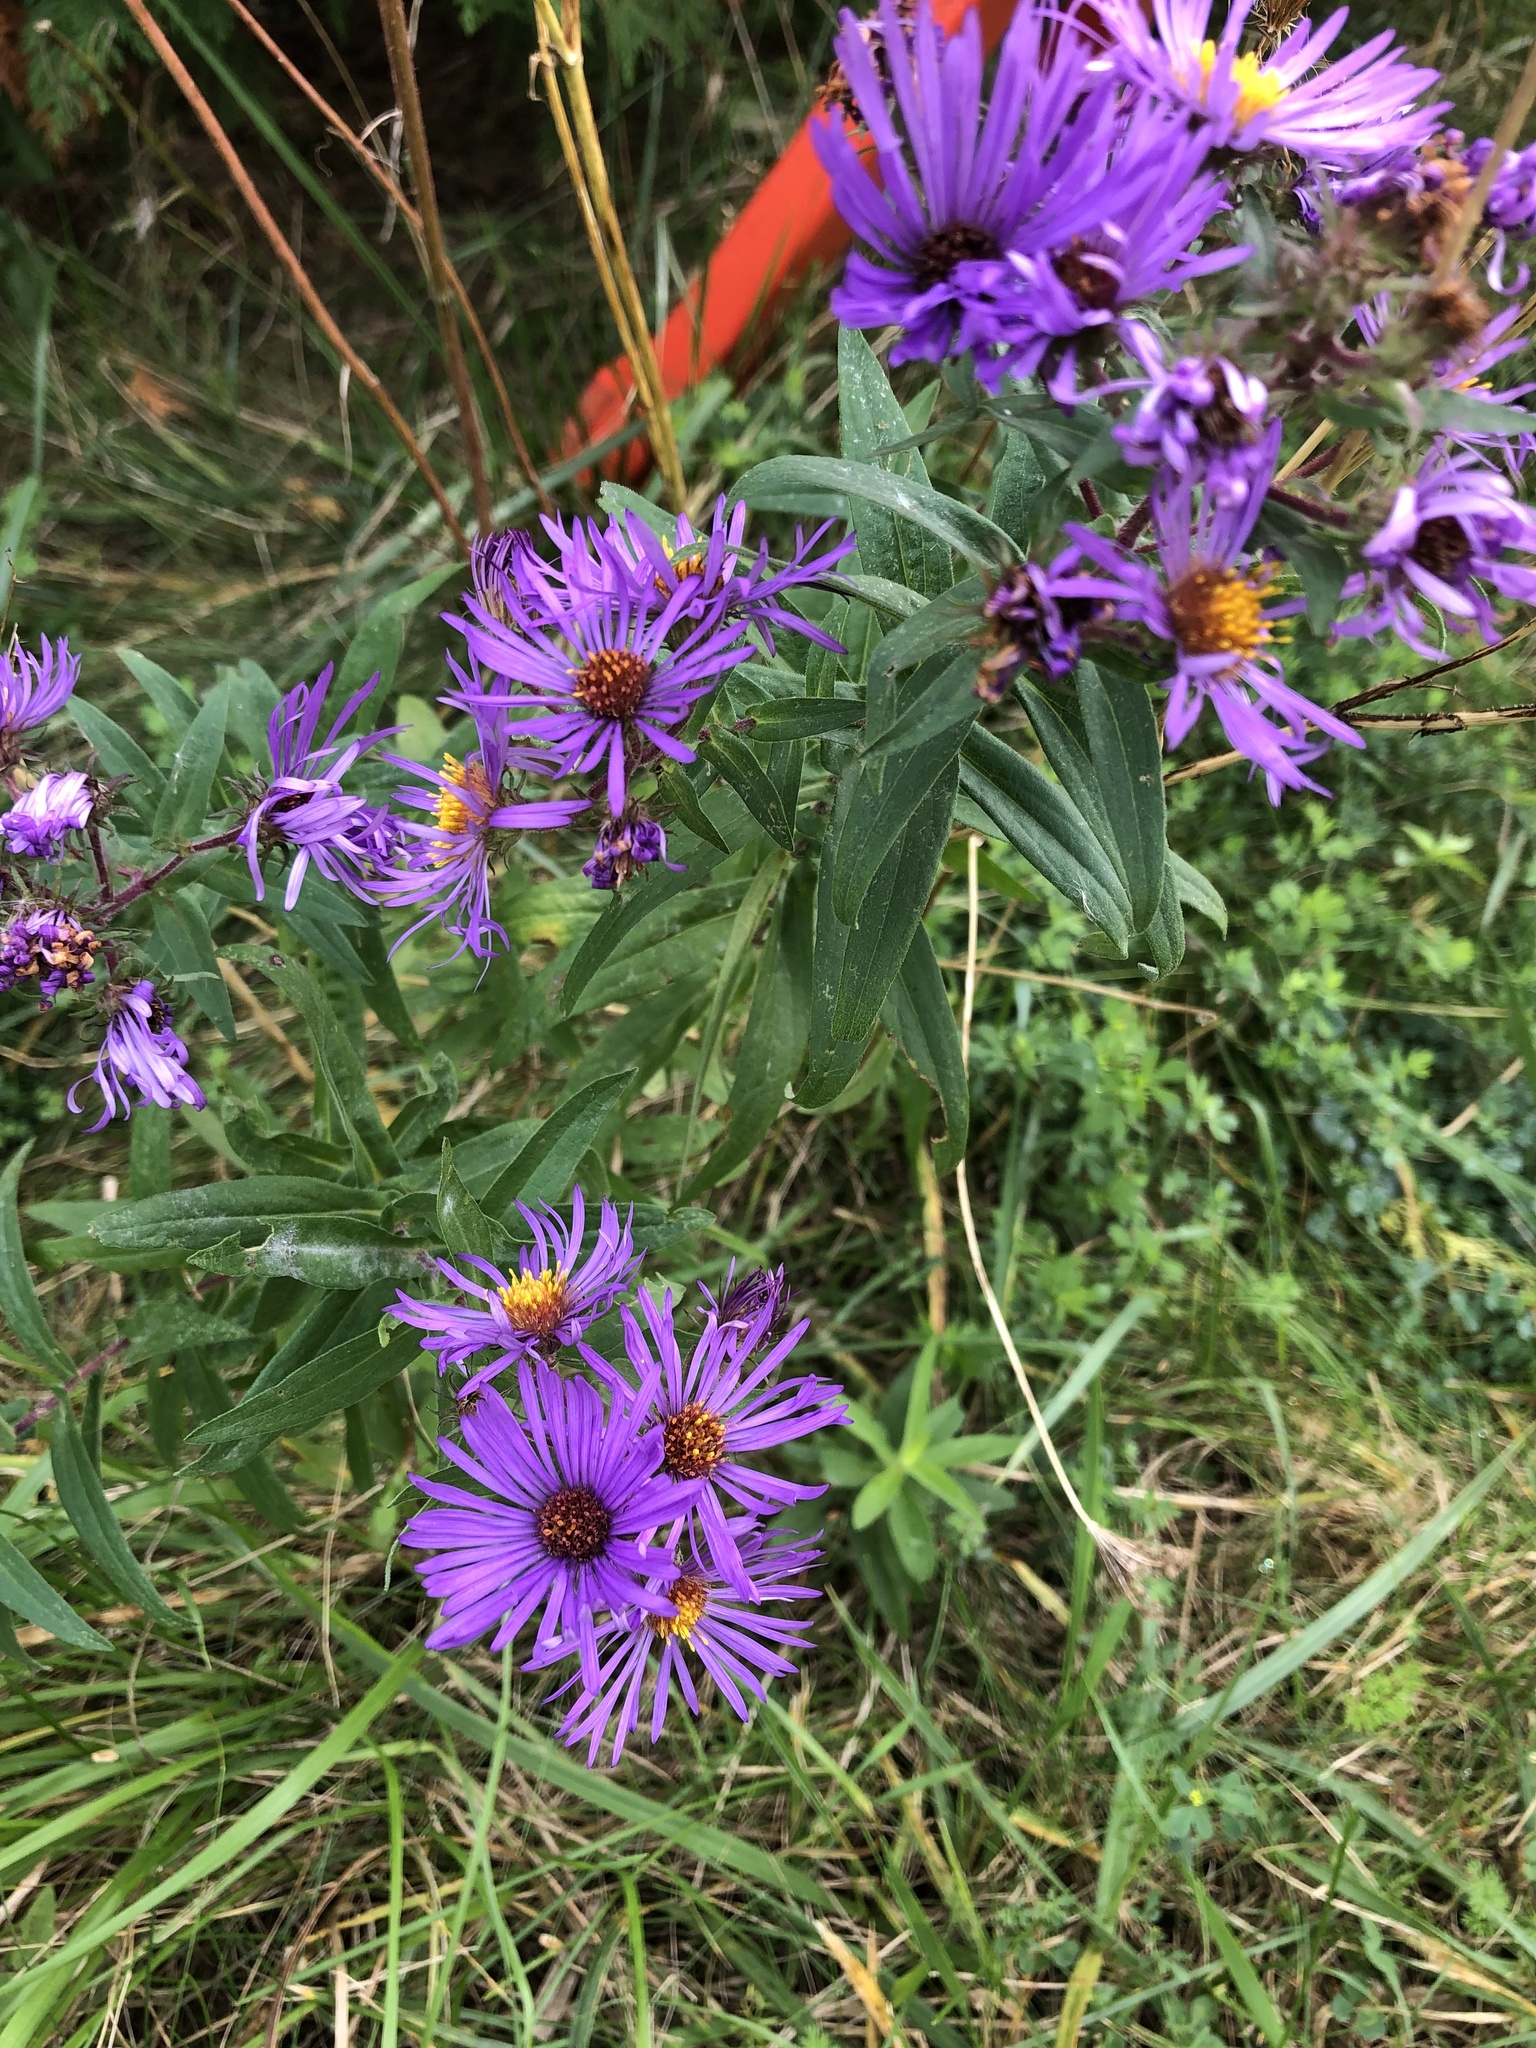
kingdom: Plantae
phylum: Tracheophyta
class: Magnoliopsida
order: Asterales
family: Asteraceae
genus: Symphyotrichum
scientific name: Symphyotrichum novae-angliae
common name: Michaelmas daisy
